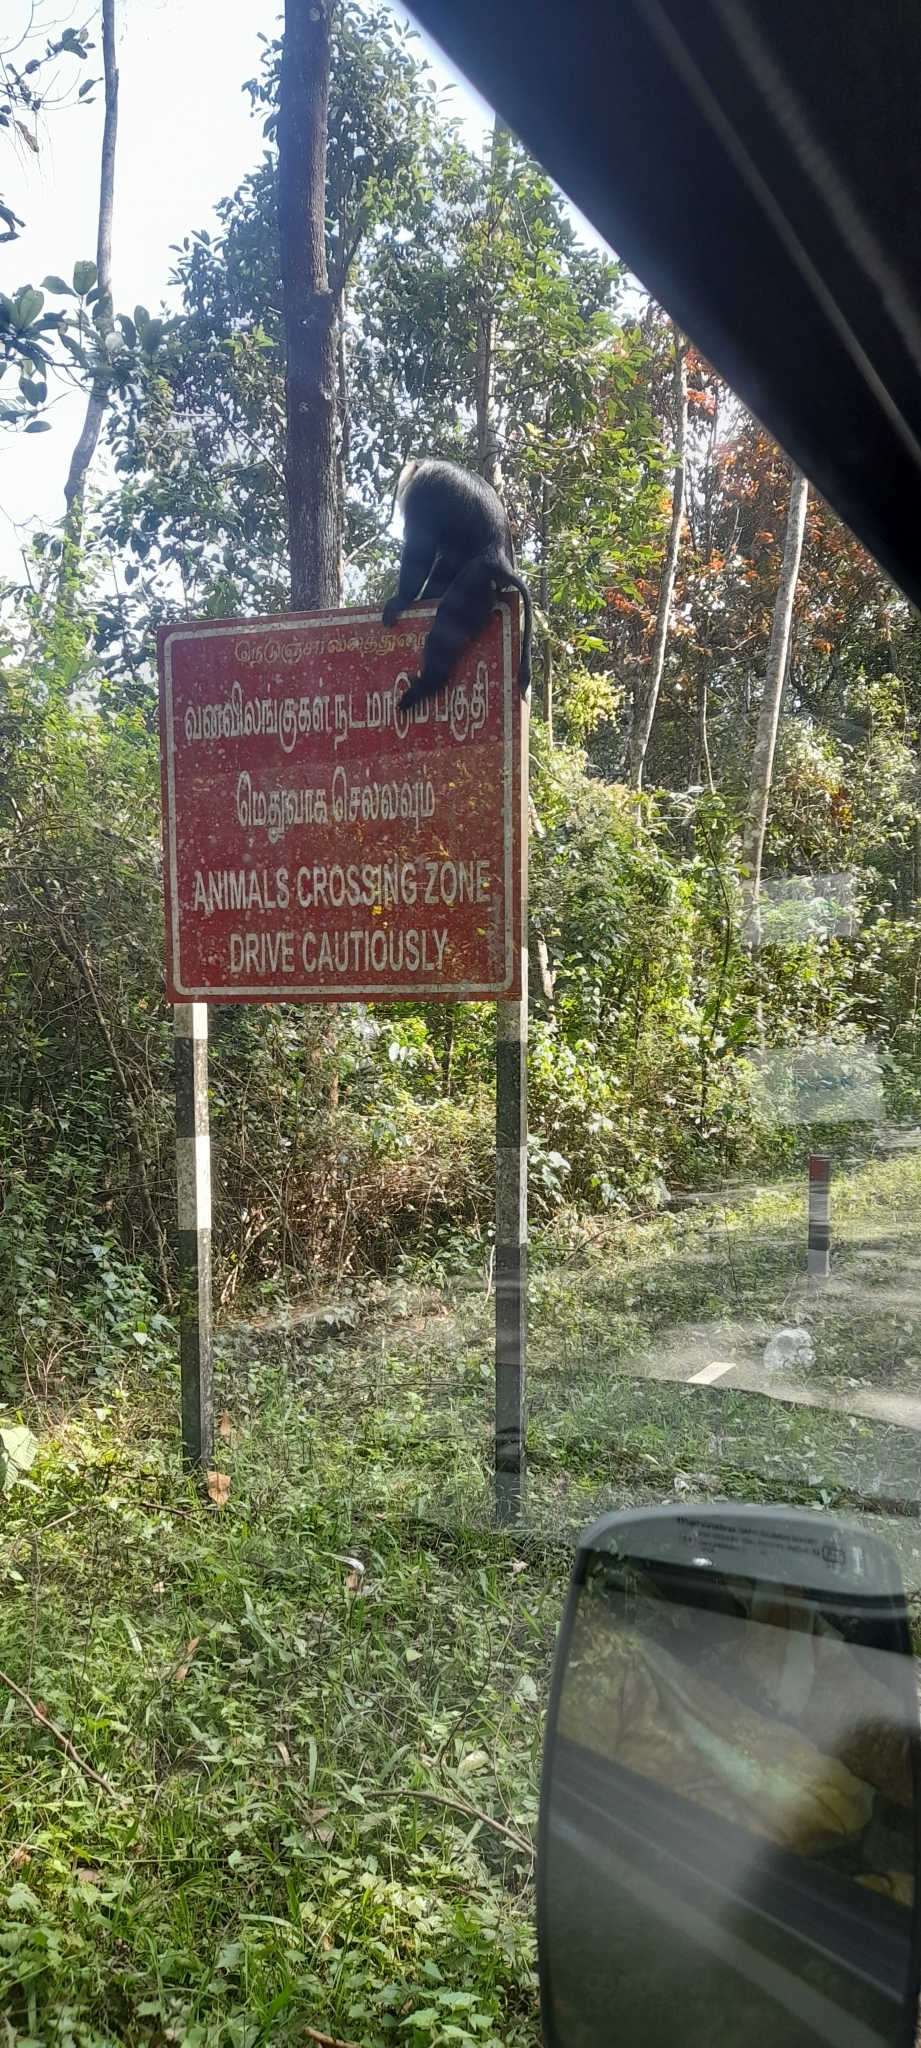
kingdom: Animalia
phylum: Chordata
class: Mammalia
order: Primates
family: Cercopithecidae
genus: Macaca
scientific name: Macaca silenus
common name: Lion-tailed macaque
